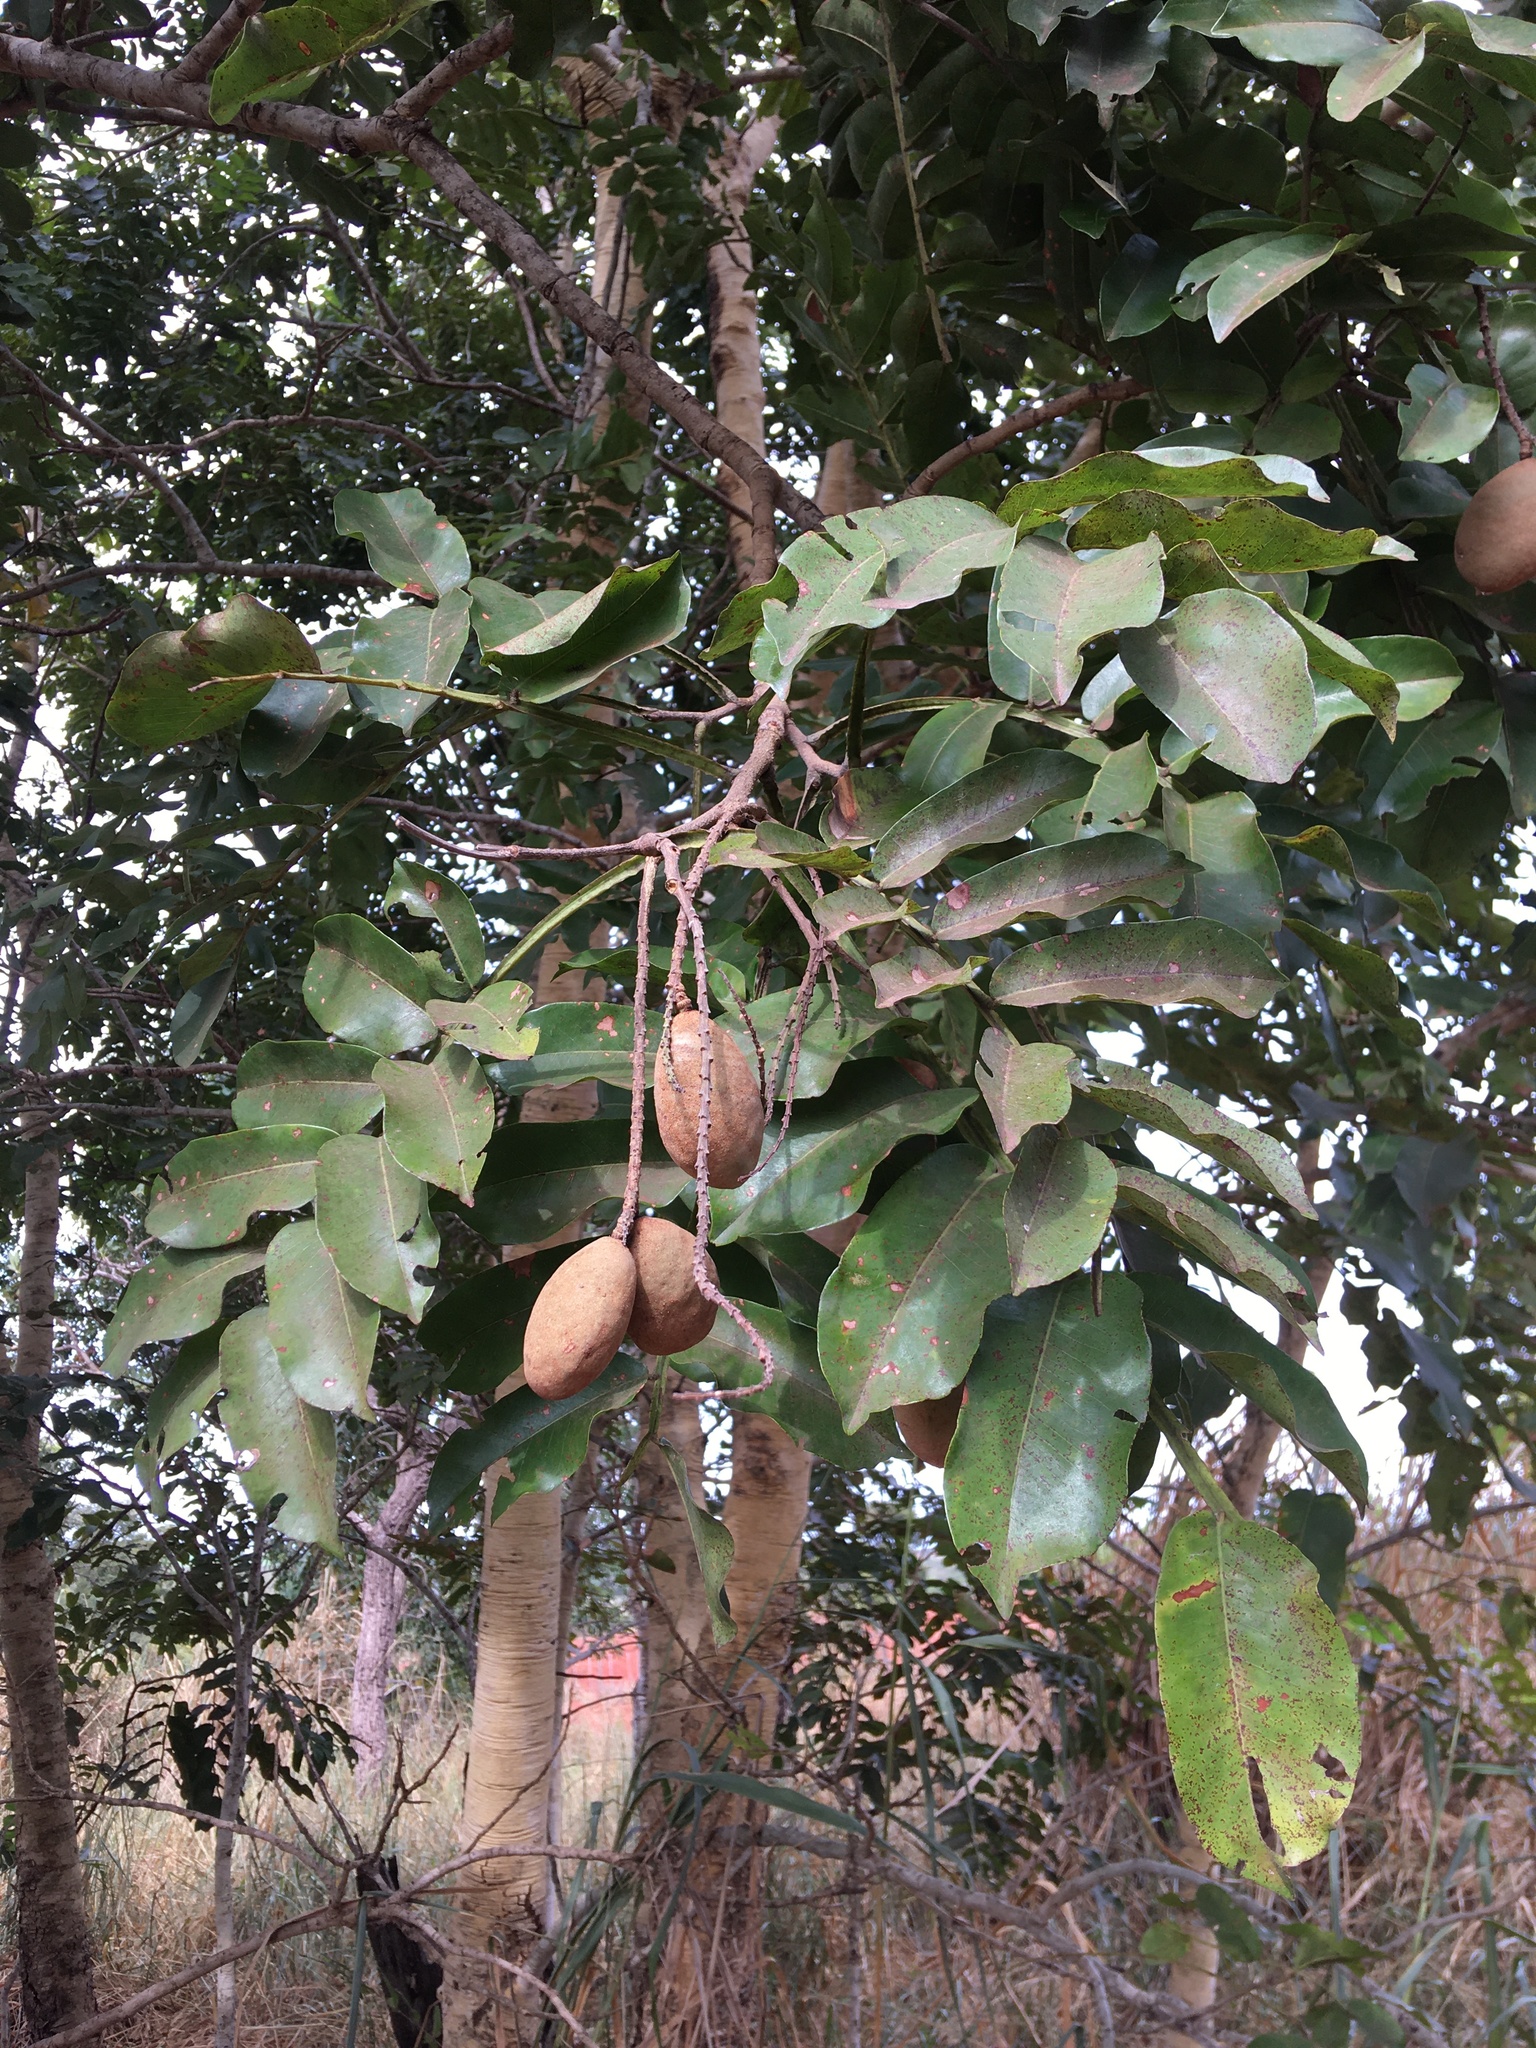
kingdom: Plantae
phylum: Tracheophyta
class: Magnoliopsida
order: Fabales
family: Fabaceae
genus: Dipteryx
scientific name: Dipteryx alata
